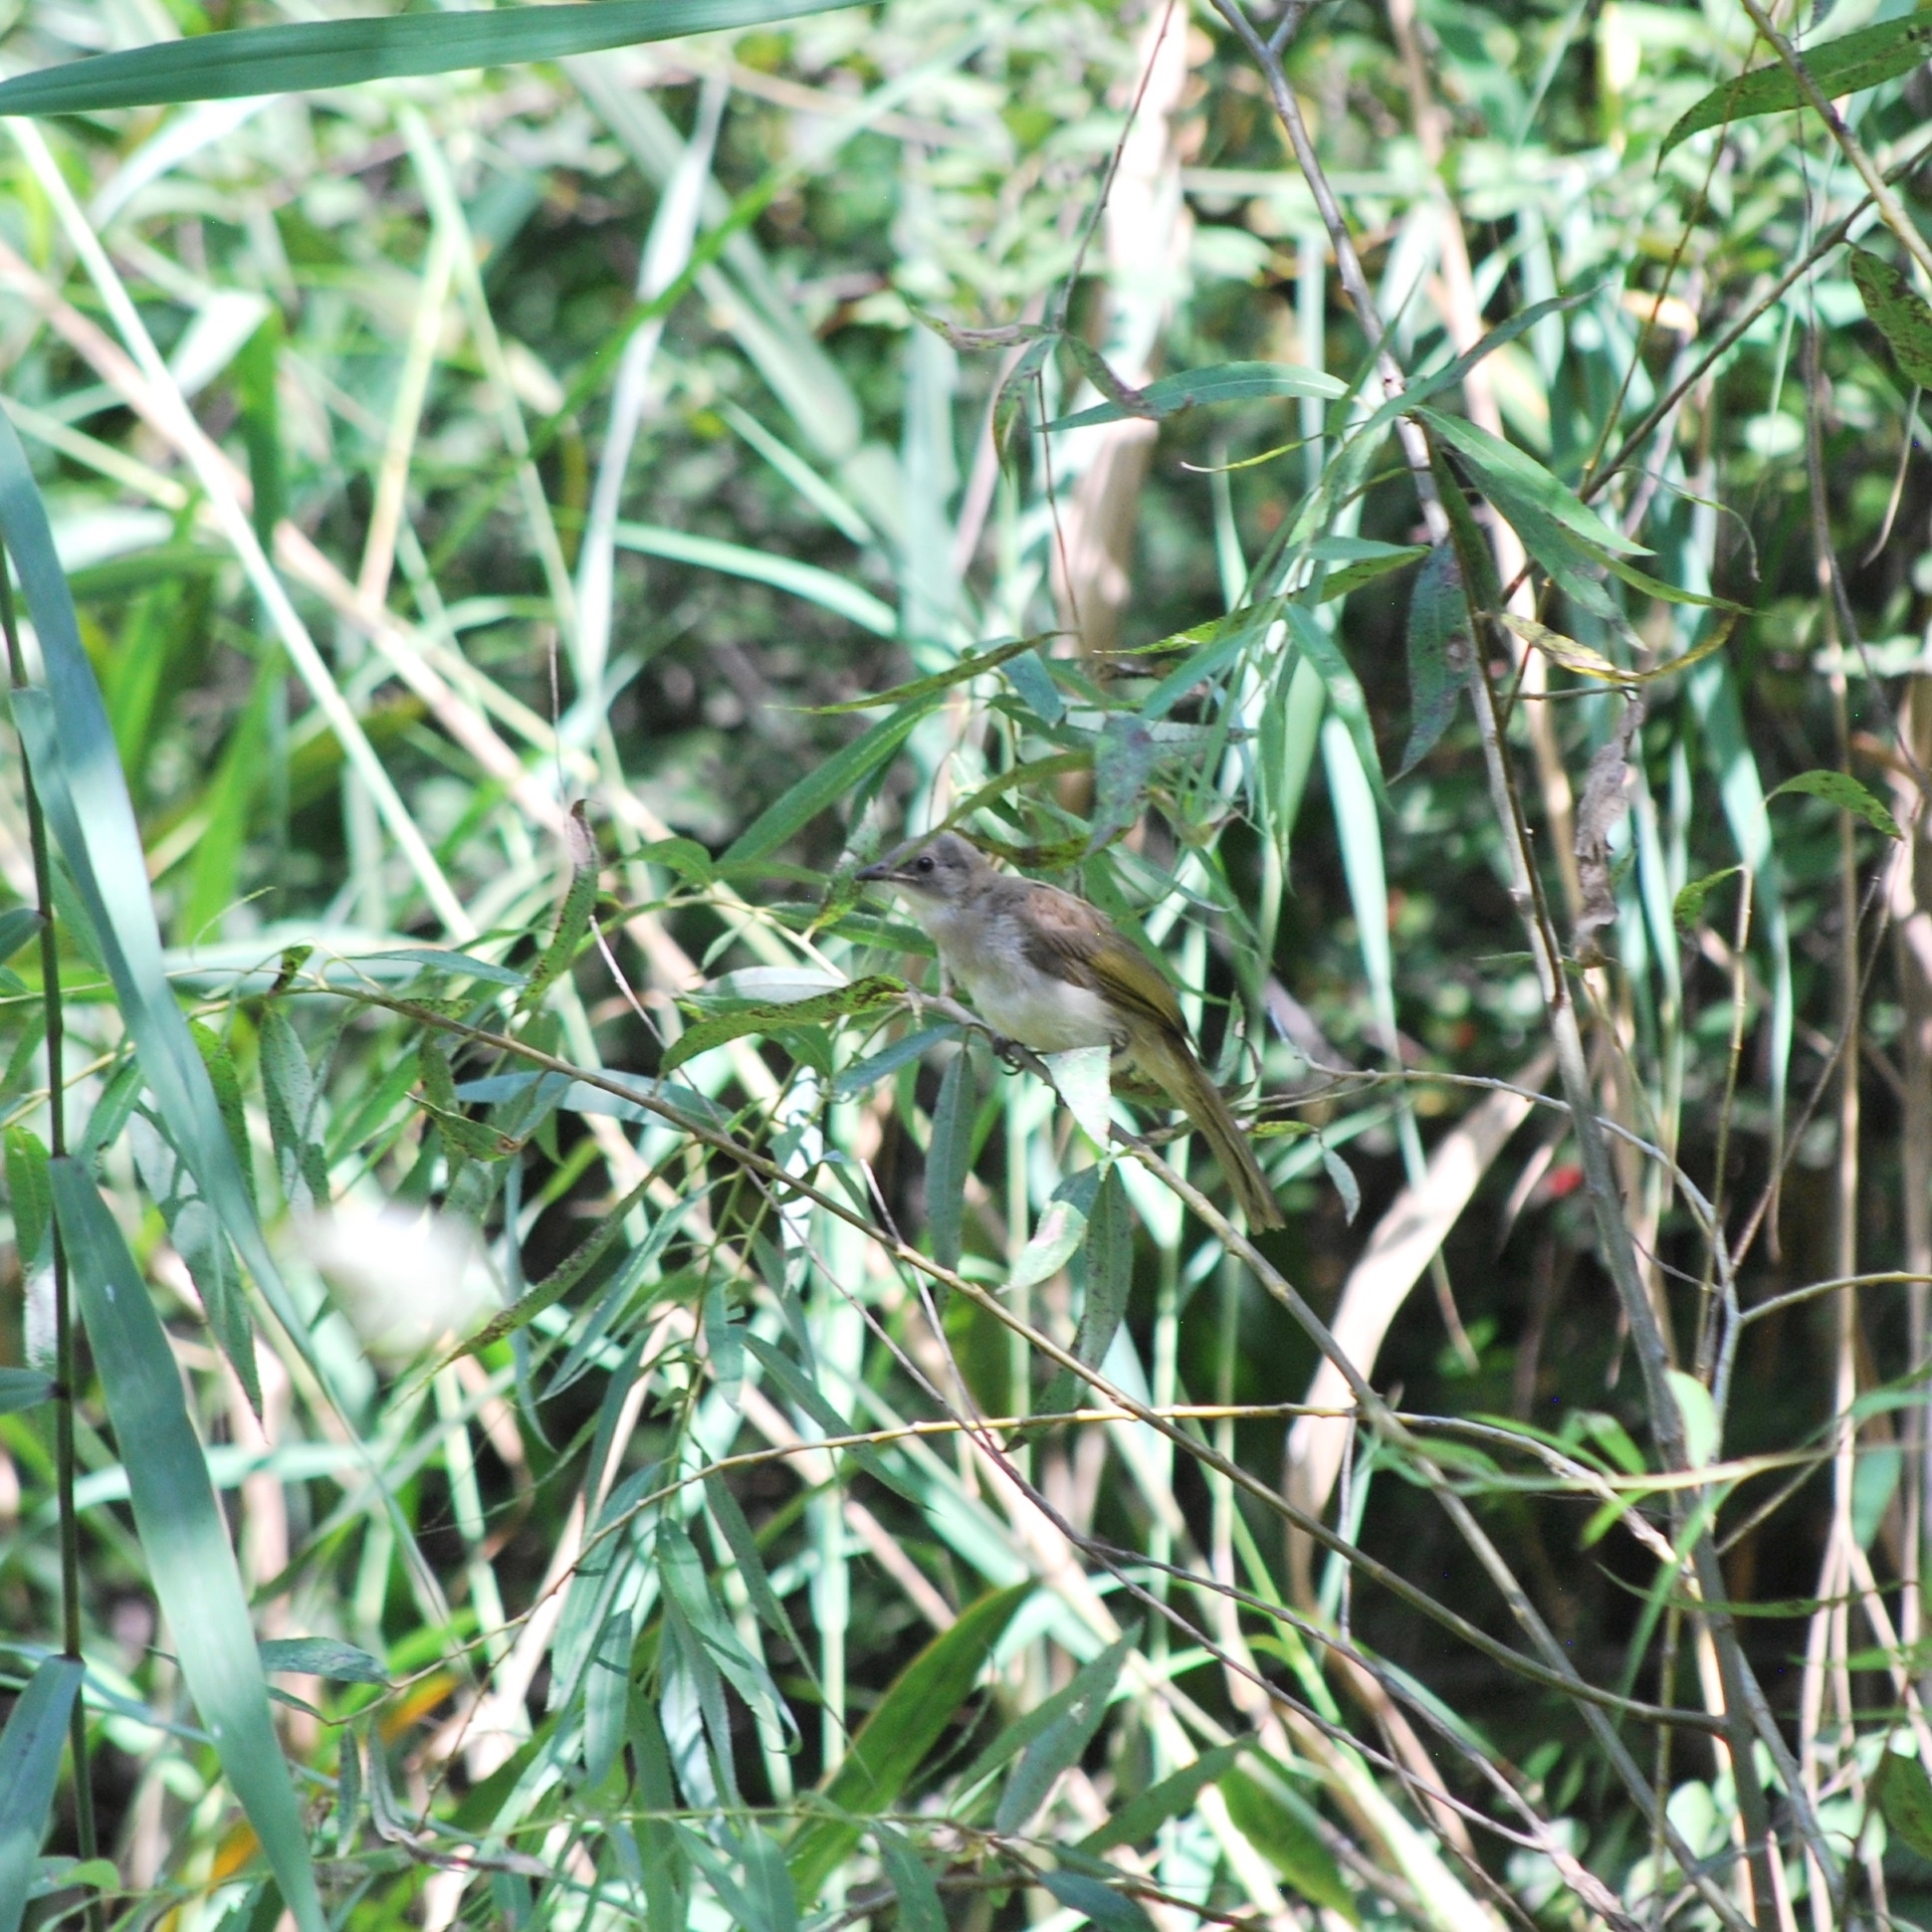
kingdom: Animalia
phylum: Chordata
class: Aves
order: Passeriformes
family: Pycnonotidae
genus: Pycnonotus
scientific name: Pycnonotus sinensis
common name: Light-vented bulbul
